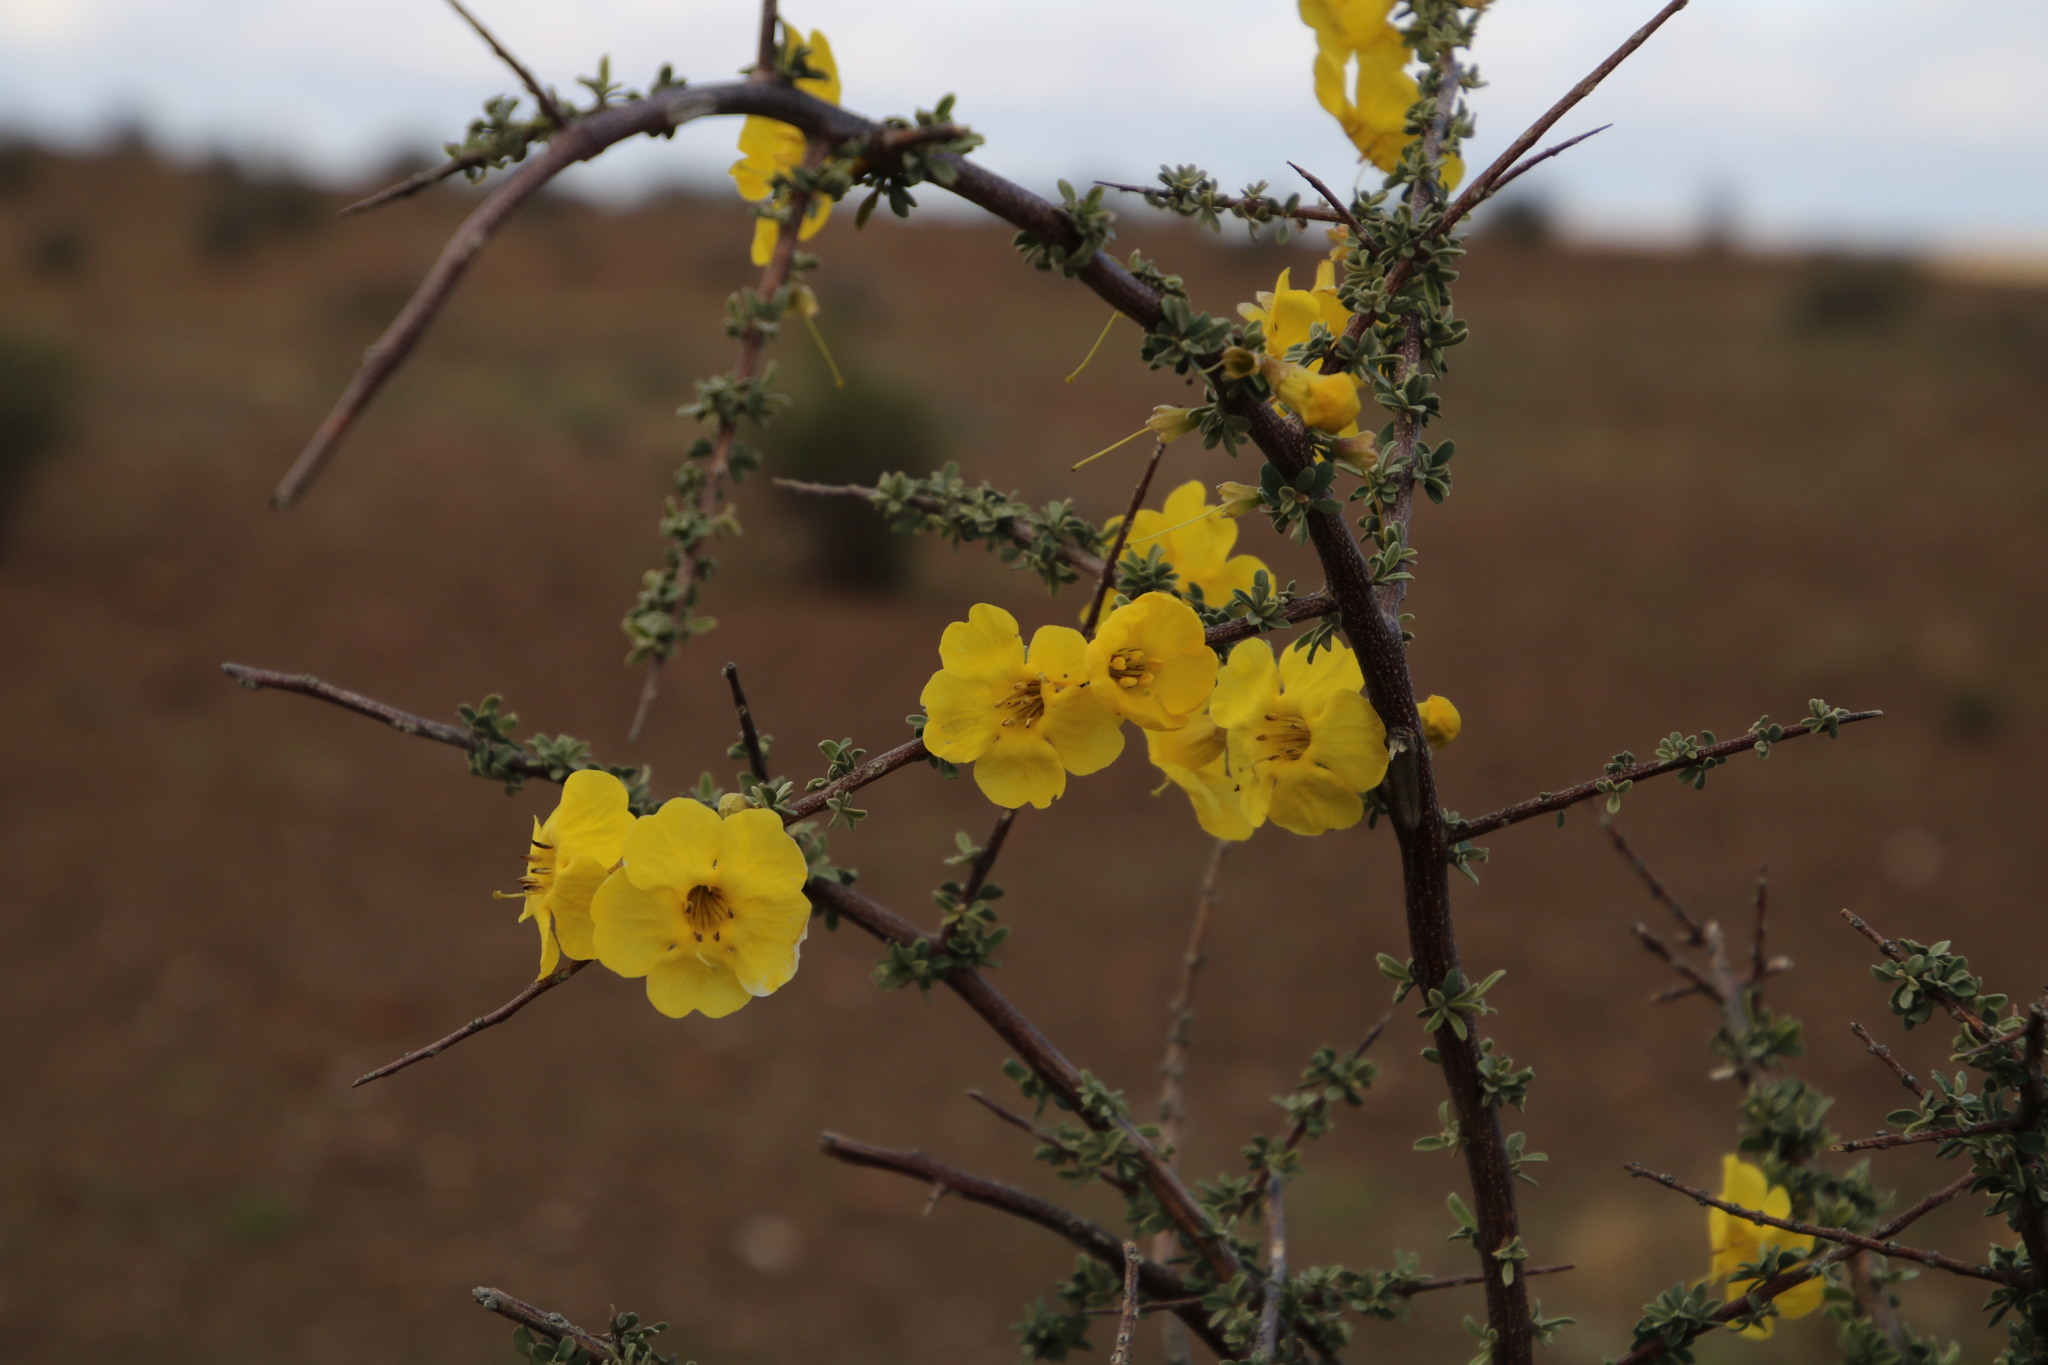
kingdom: Plantae
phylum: Tracheophyta
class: Magnoliopsida
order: Lamiales
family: Bignoniaceae
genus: Rhigozum
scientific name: Rhigozum obovatum
